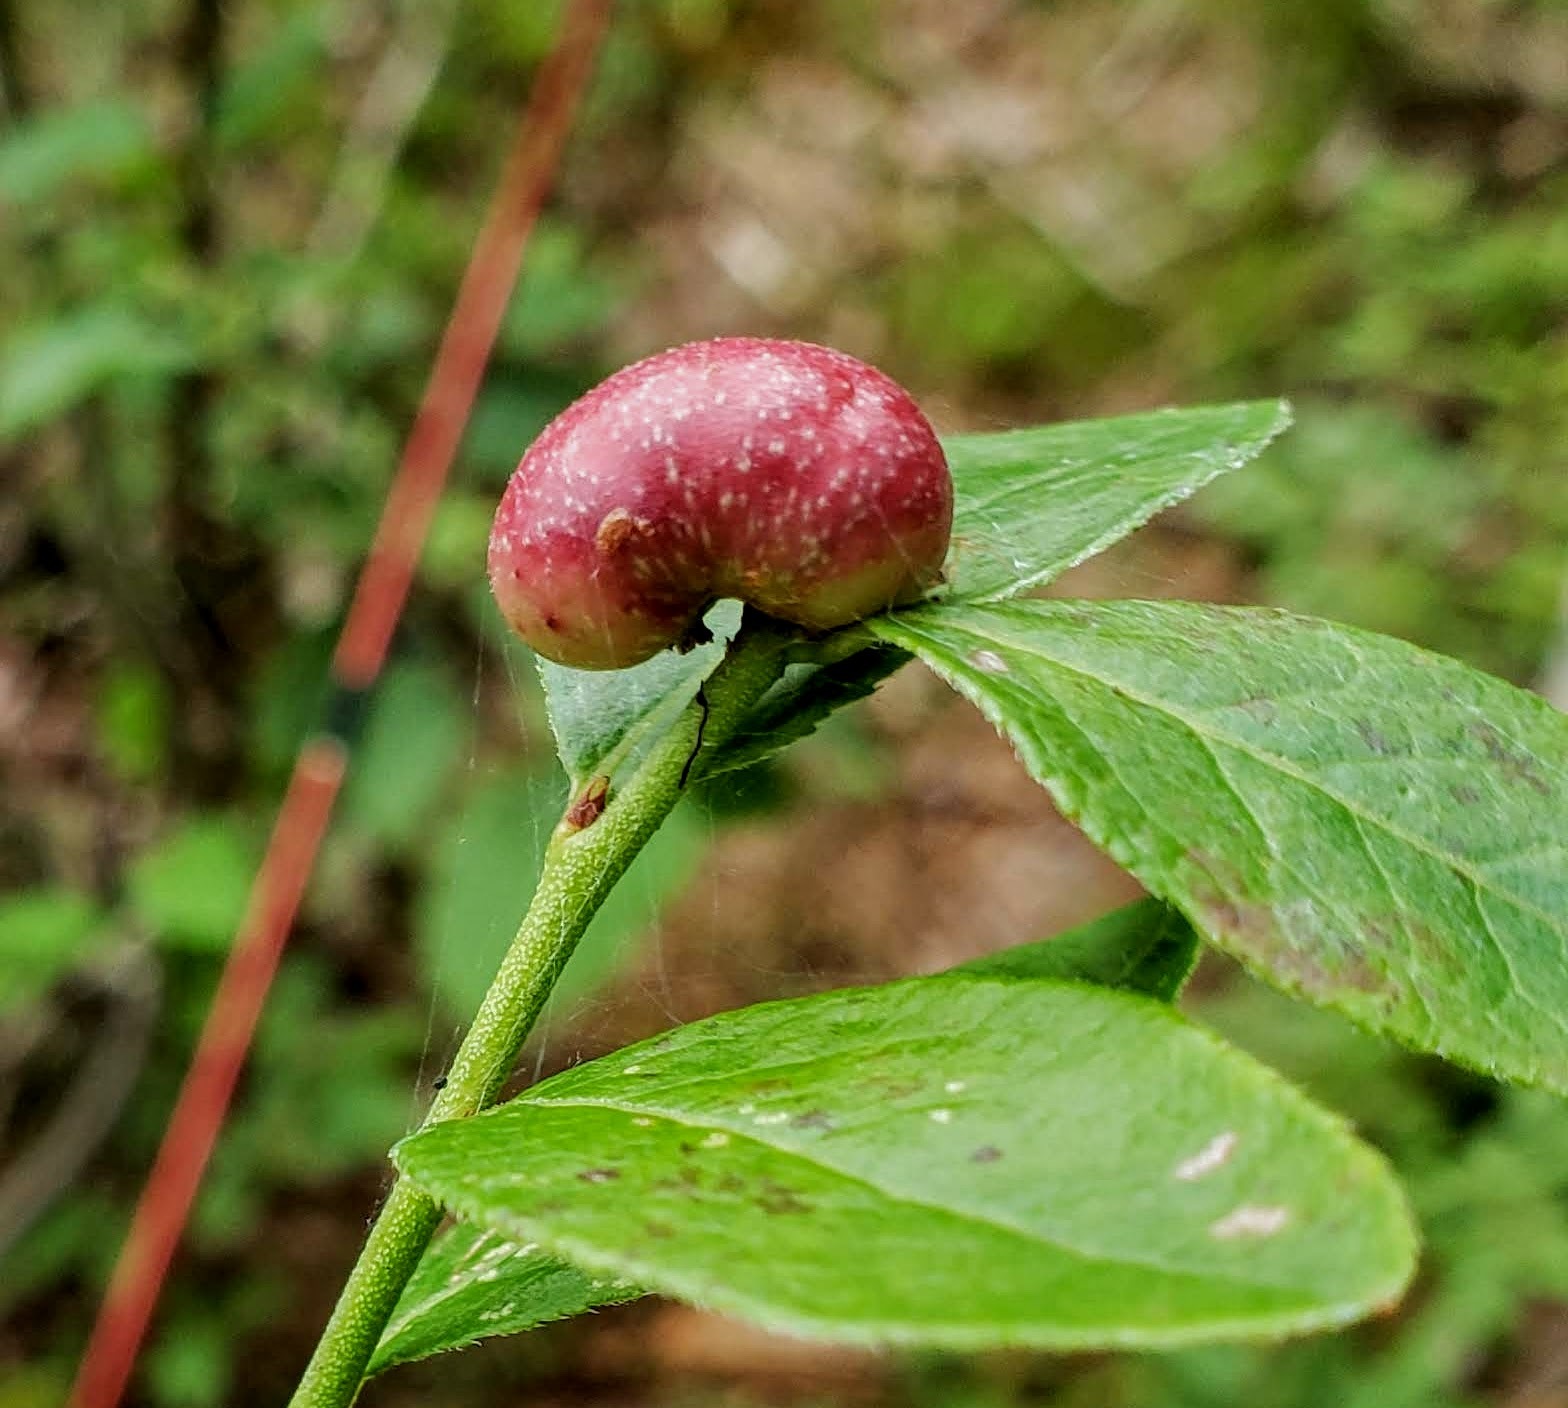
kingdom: Animalia
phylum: Arthropoda
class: Insecta
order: Hymenoptera
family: Pteromalidae
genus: Hemadas
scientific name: Hemadas nubilipennis
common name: Blueberry stem gall wasp
